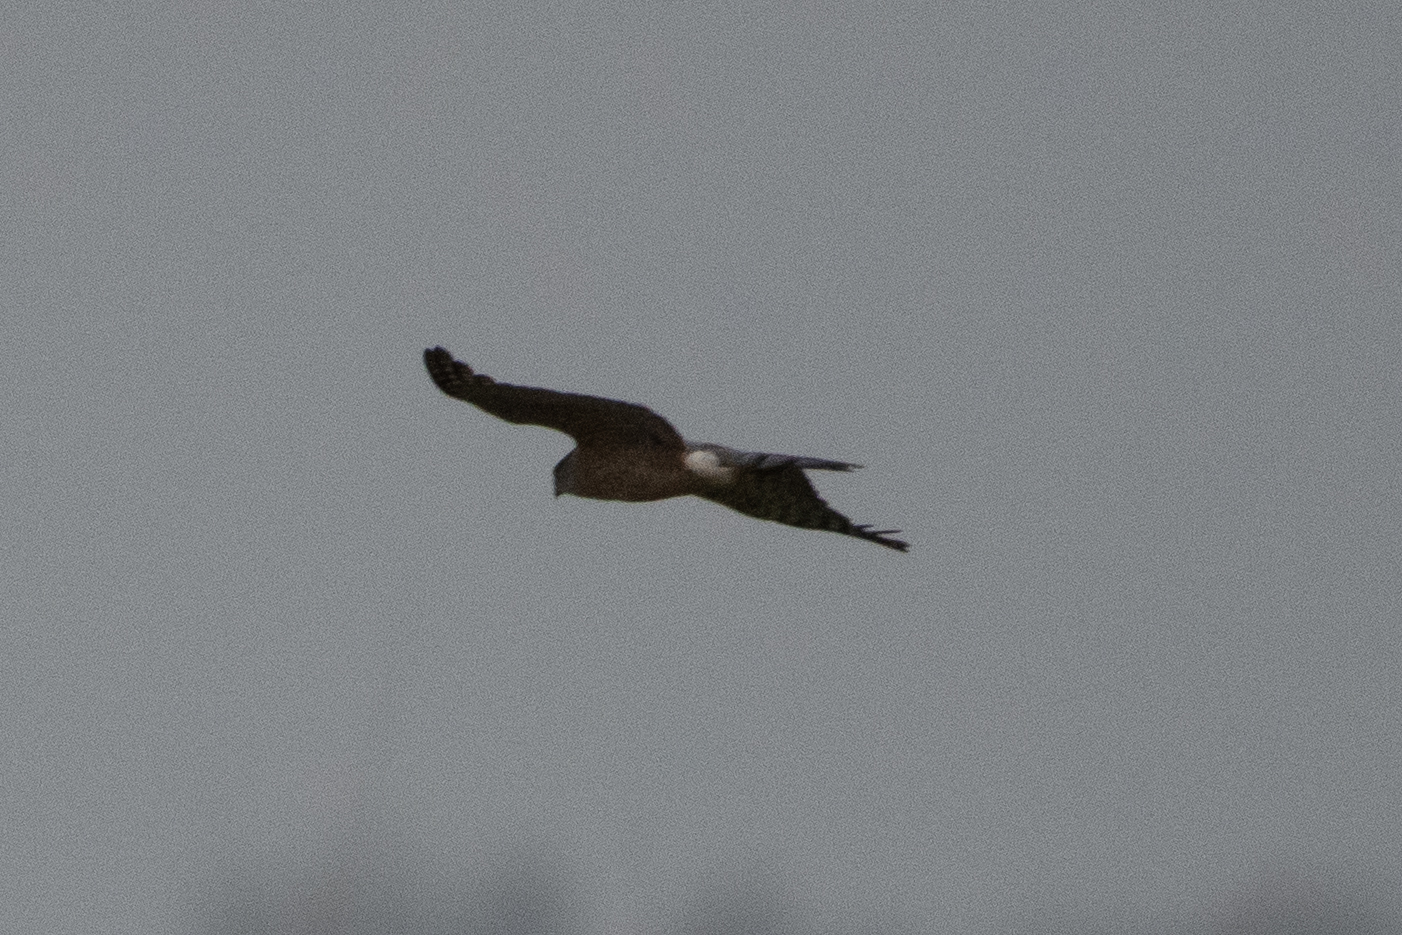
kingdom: Animalia
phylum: Chordata
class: Aves
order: Accipitriformes
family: Accipitridae
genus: Circus
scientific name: Circus cyaneus
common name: Hen harrier
